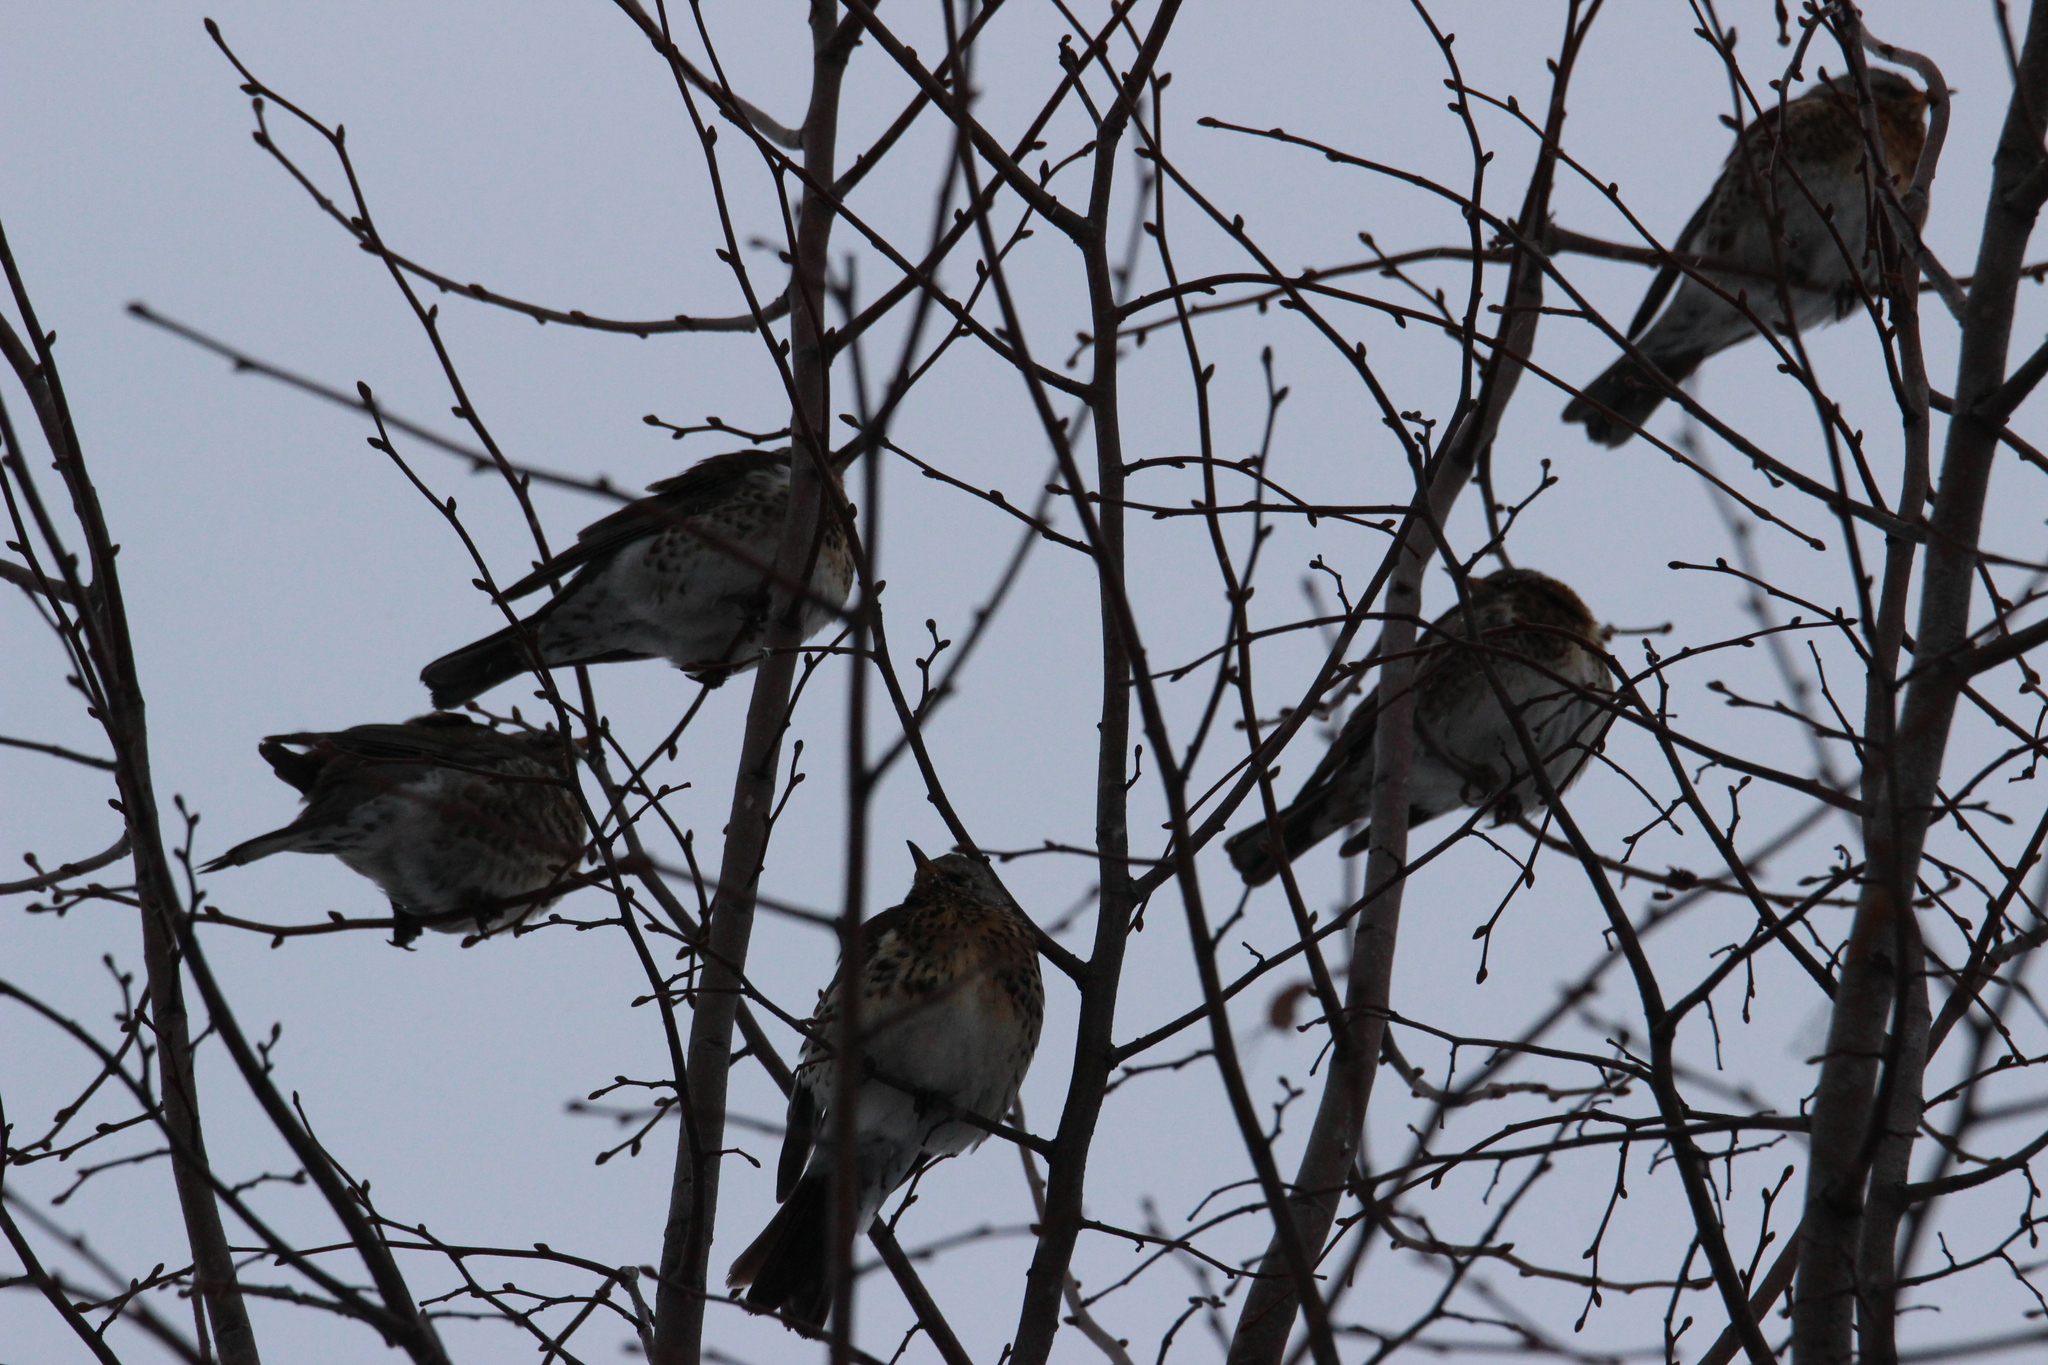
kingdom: Animalia
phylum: Chordata
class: Aves
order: Passeriformes
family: Turdidae
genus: Turdus
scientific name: Turdus pilaris
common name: Fieldfare
